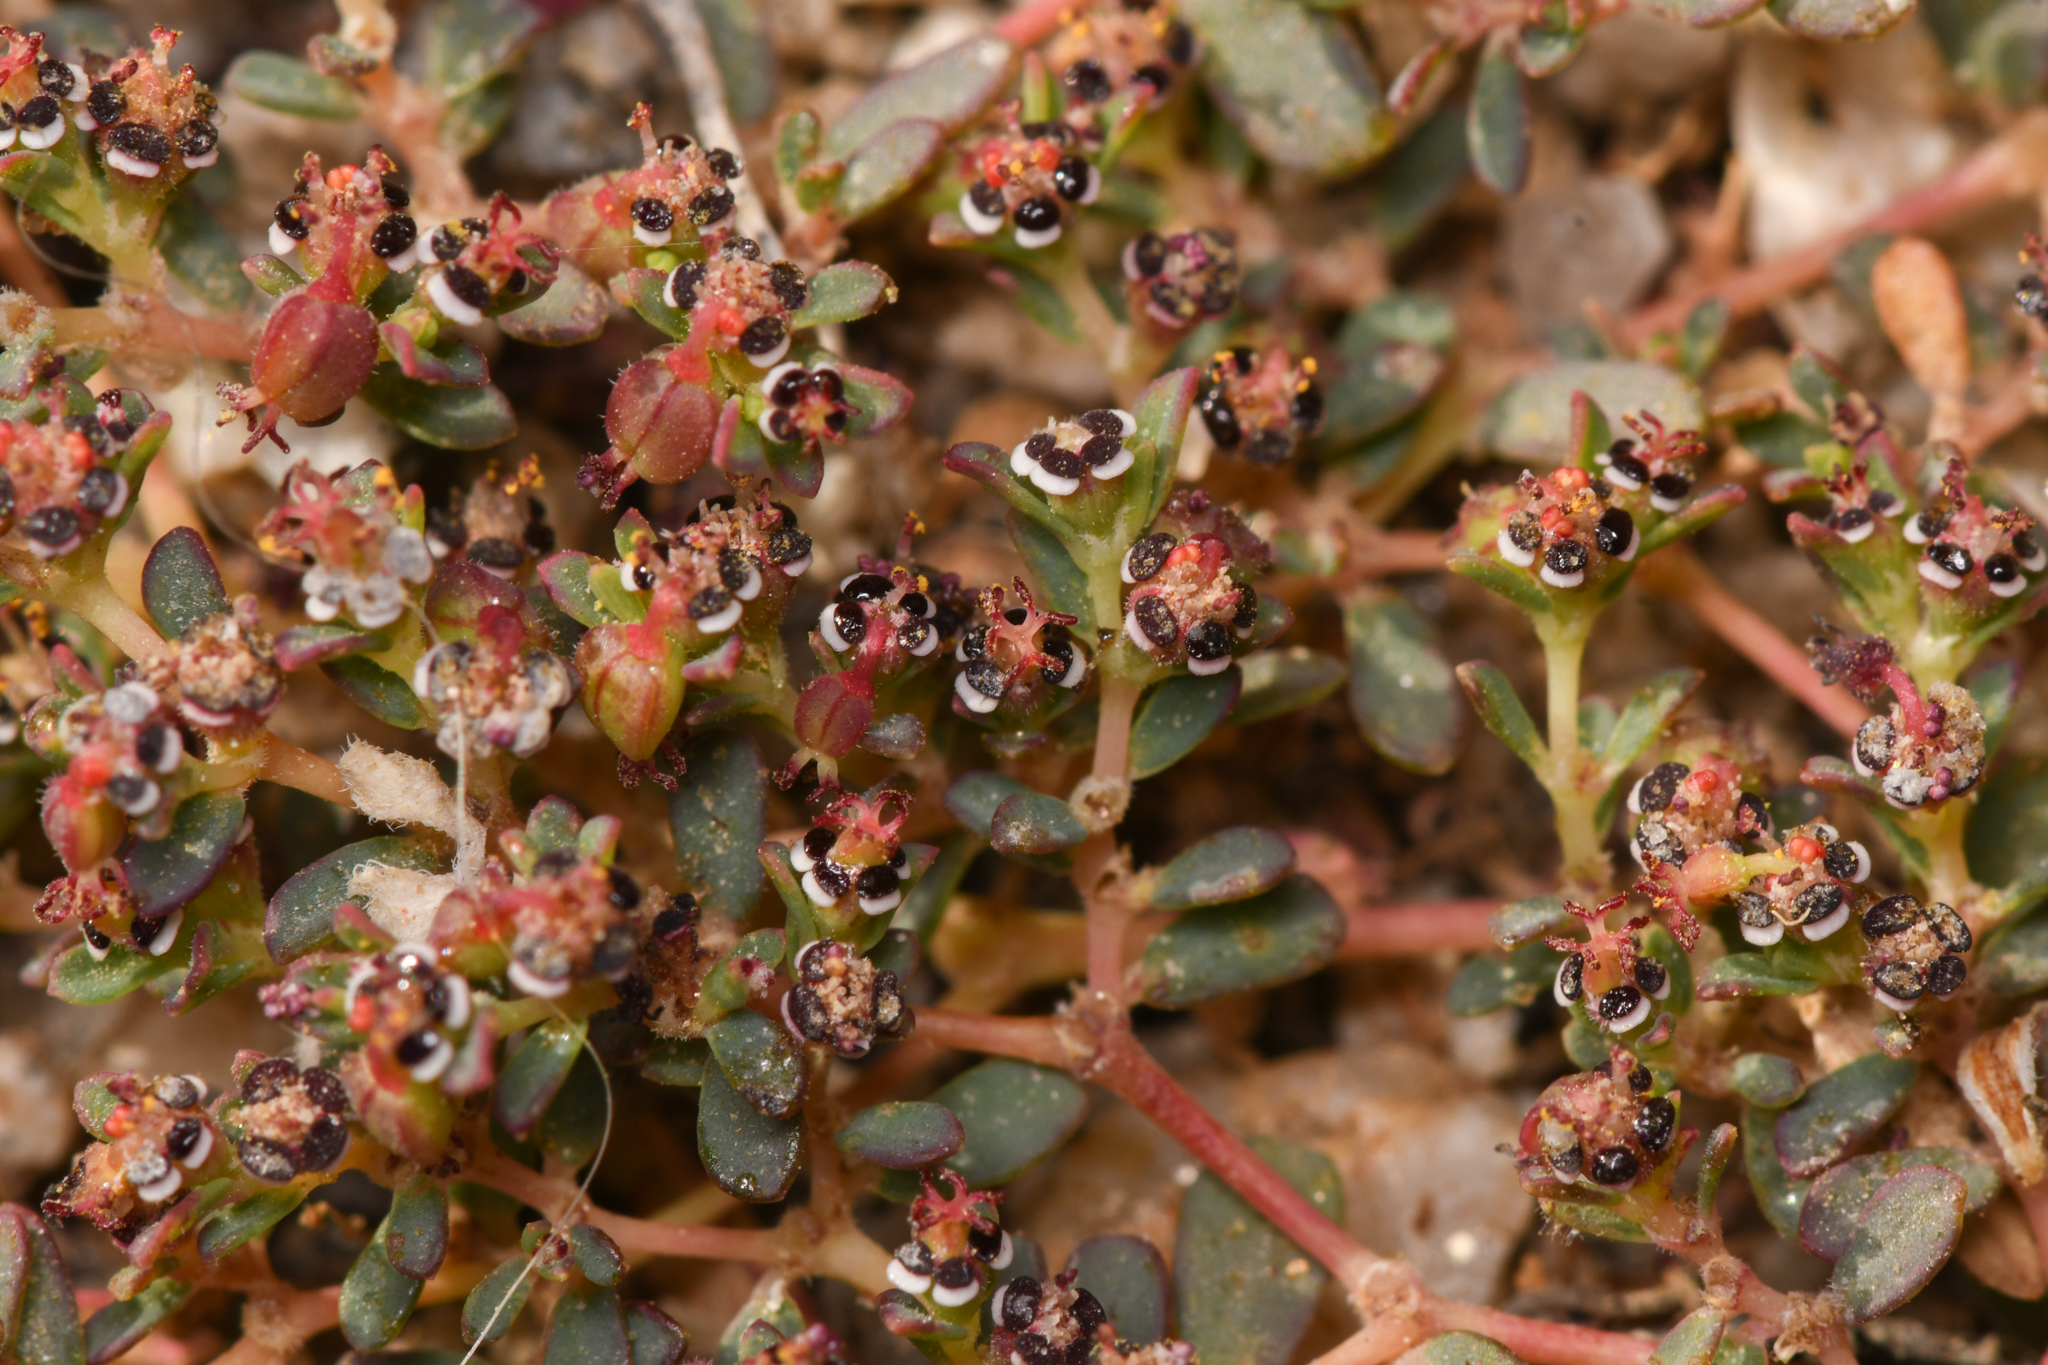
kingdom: Plantae
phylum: Tracheophyta
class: Magnoliopsida
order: Malpighiales
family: Euphorbiaceae
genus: Euphorbia
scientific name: Euphorbia polycarpa
